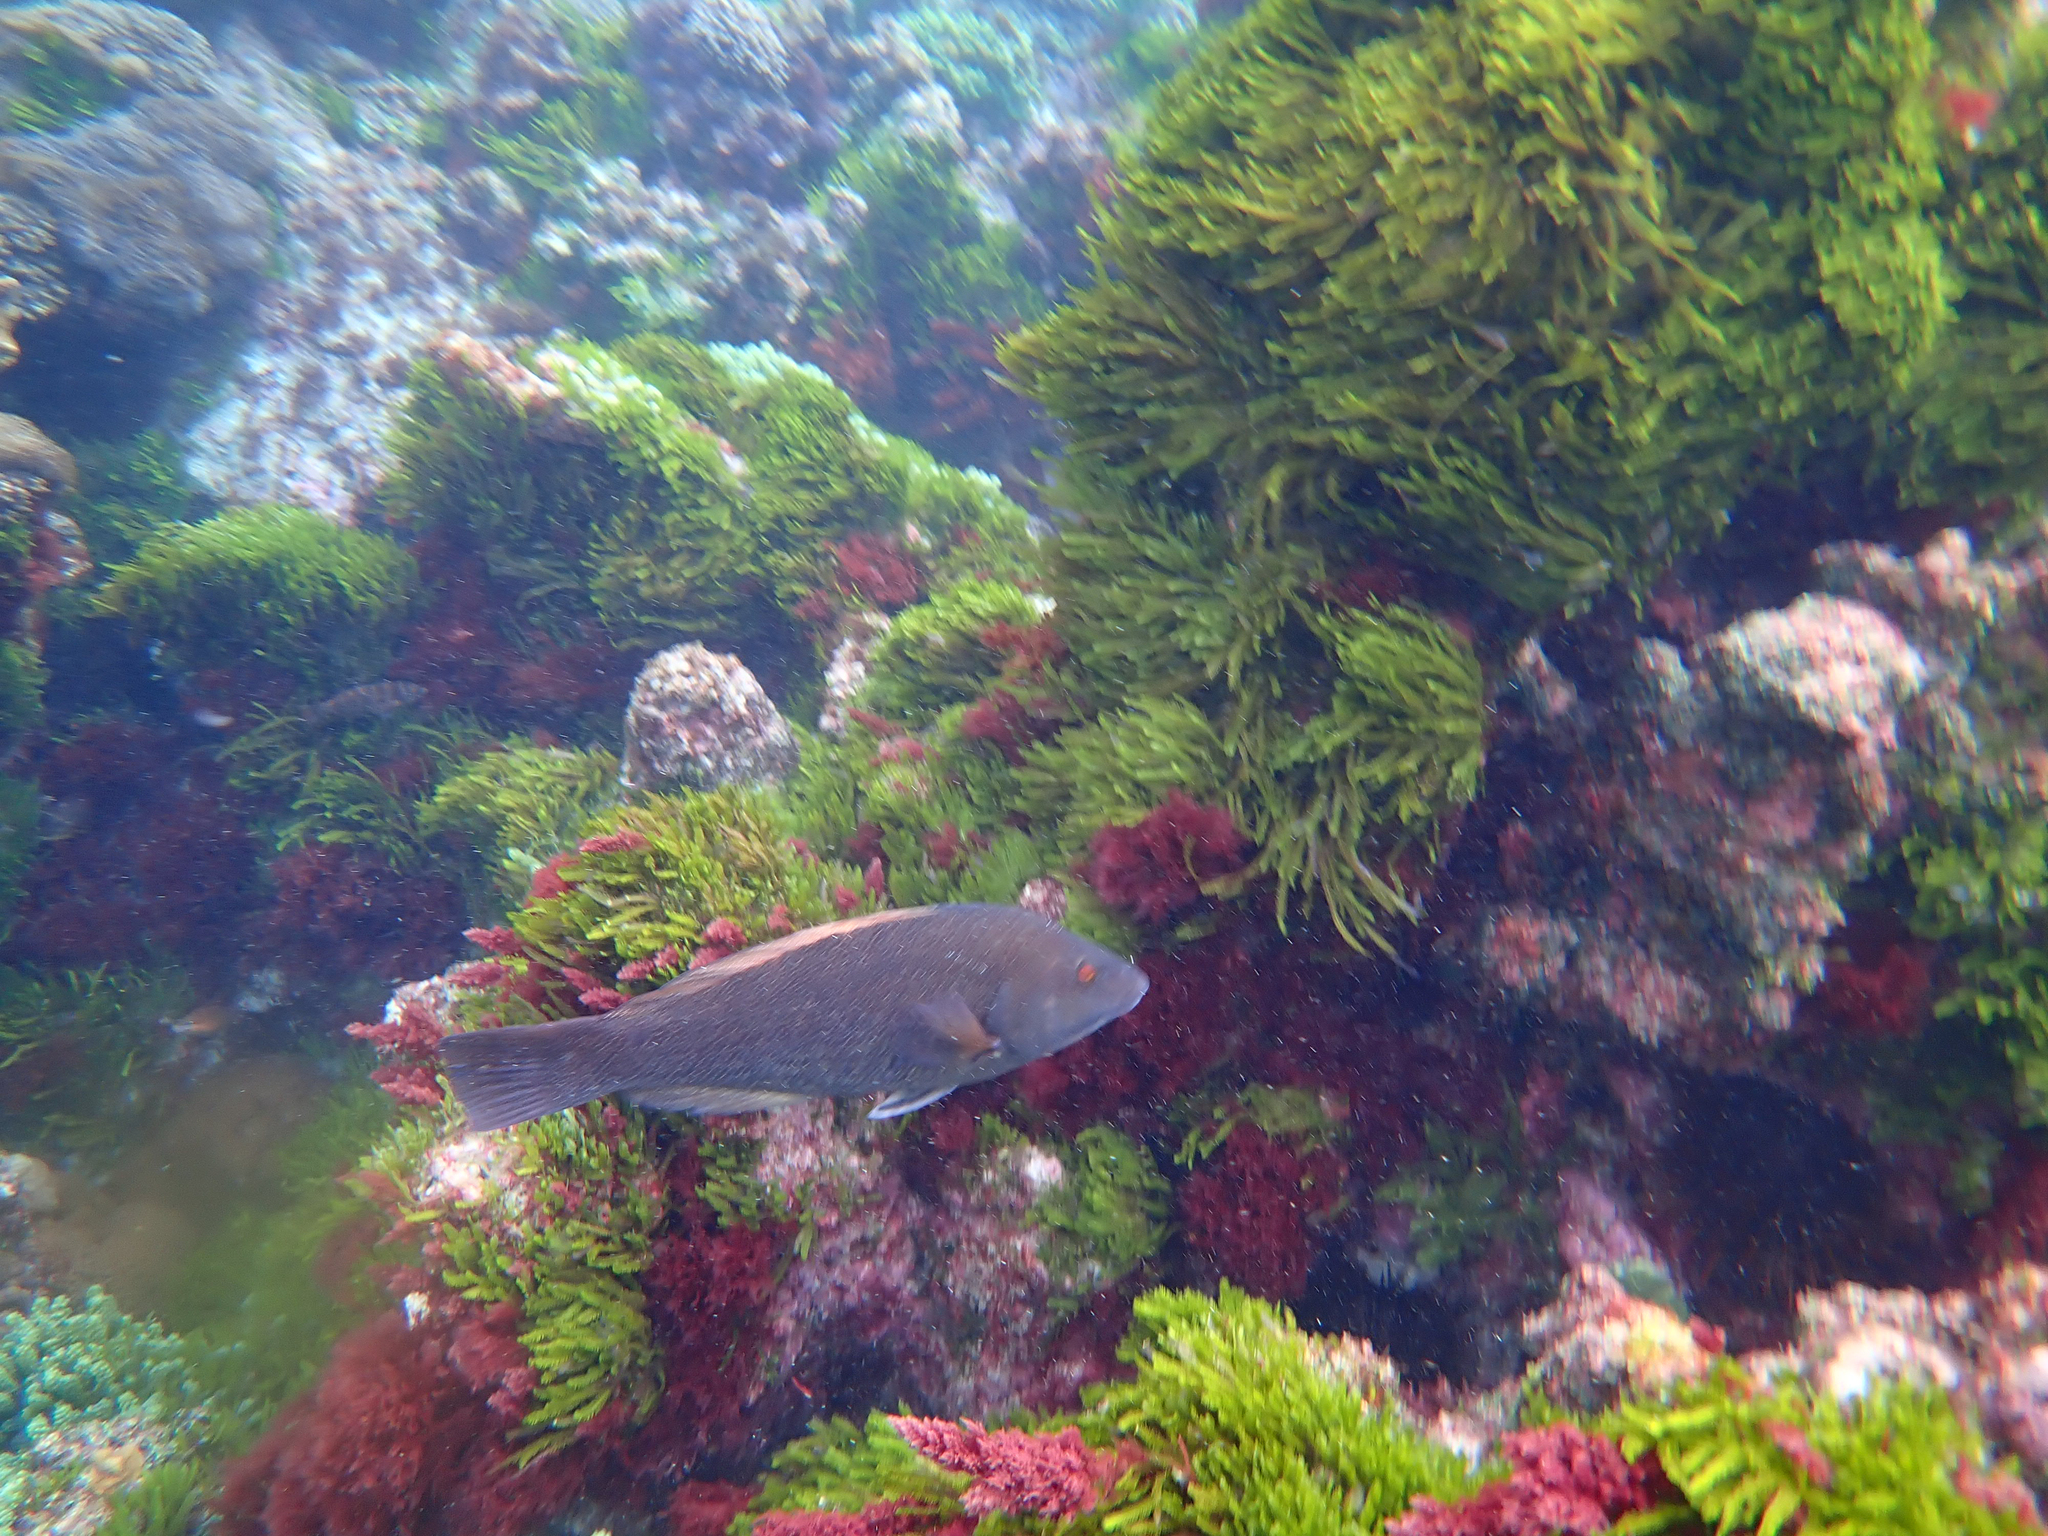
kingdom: Animalia
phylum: Chordata
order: Perciformes
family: Labridae
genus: Notolabrus
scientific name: Notolabrus inscriptus
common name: Green wrasse
